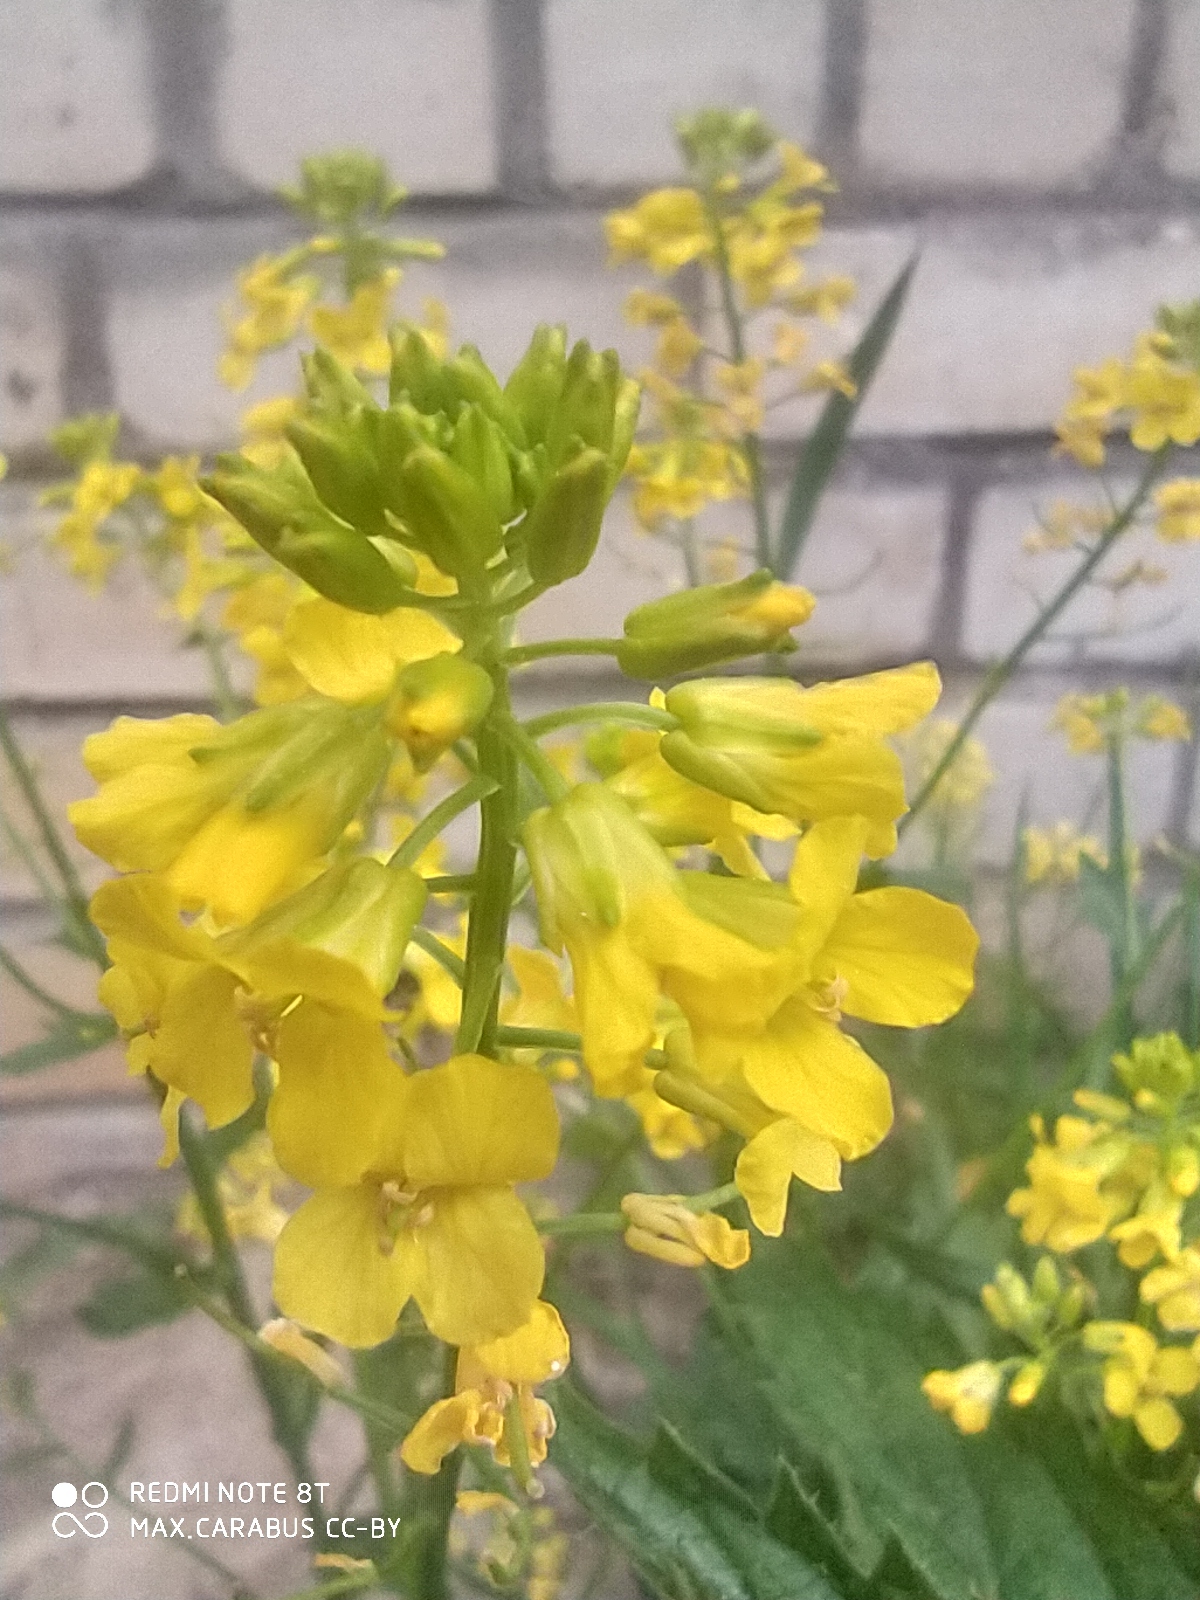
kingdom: Plantae
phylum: Tracheophyta
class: Magnoliopsida
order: Brassicales
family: Brassicaceae
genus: Barbarea
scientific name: Barbarea vulgaris
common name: Cressy-greens
